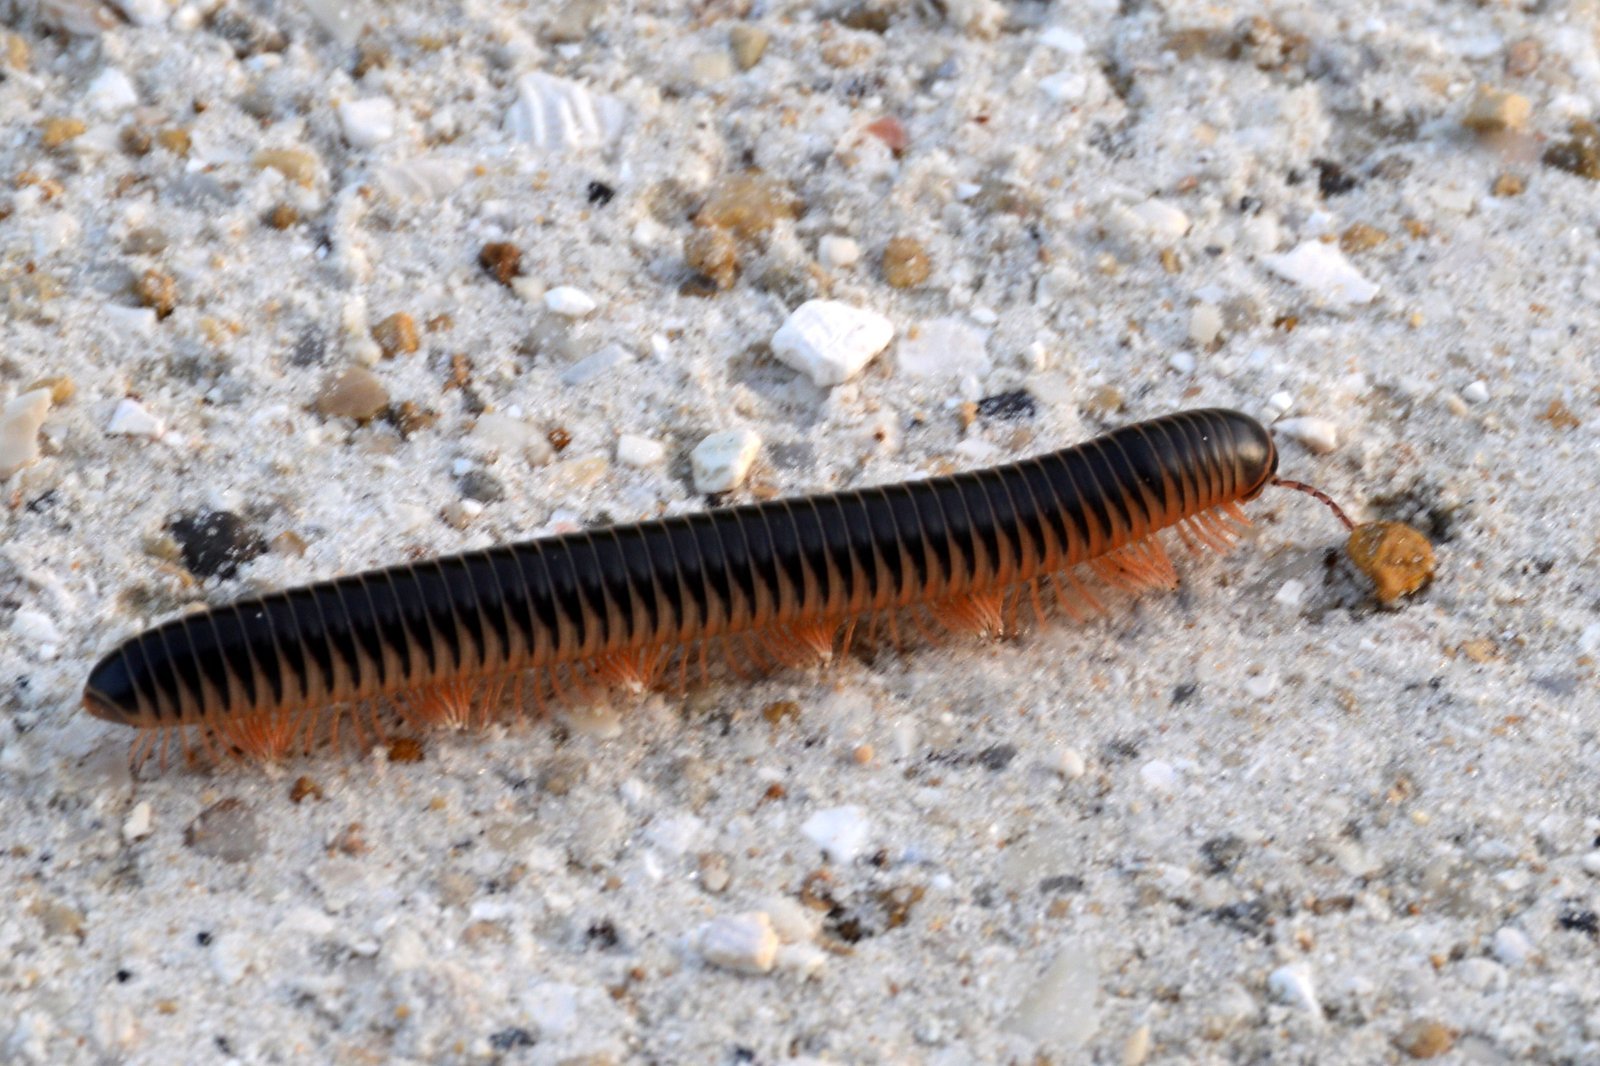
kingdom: Animalia
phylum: Arthropoda
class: Diplopoda
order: Spirobolida
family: Spirobolidae
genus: Chicobolus
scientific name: Chicobolus spinigerus
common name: Florida ivory millipede
